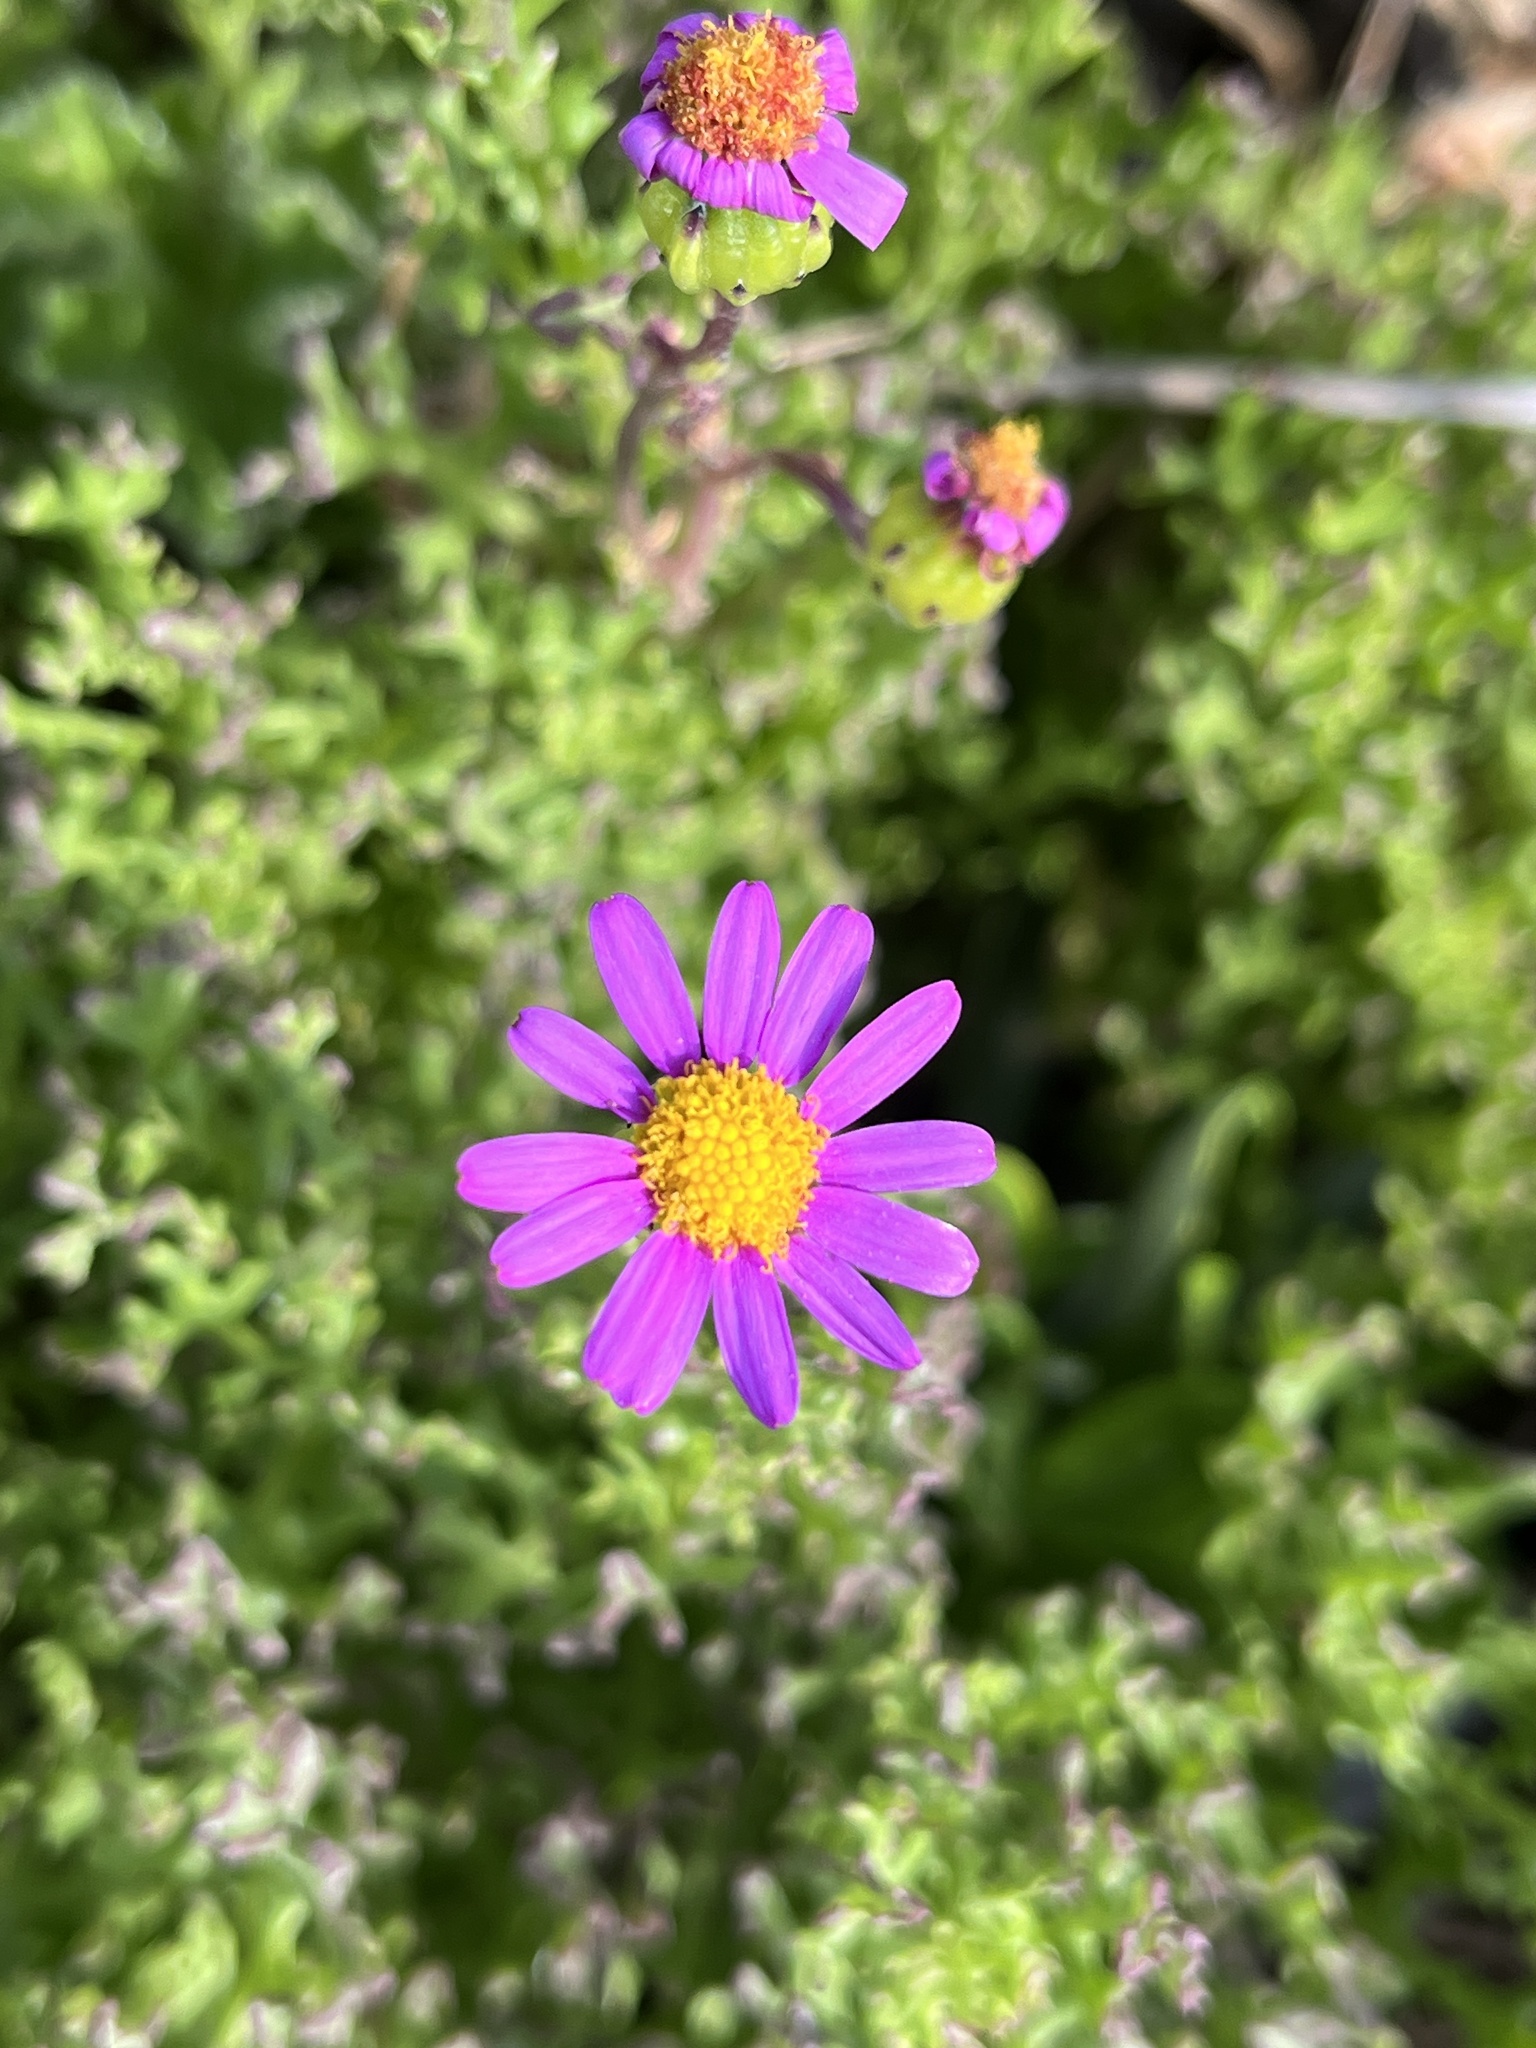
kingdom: Plantae
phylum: Tracheophyta
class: Magnoliopsida
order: Asterales
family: Asteraceae
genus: Senecio
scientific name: Senecio elegans
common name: Purple groundsel
